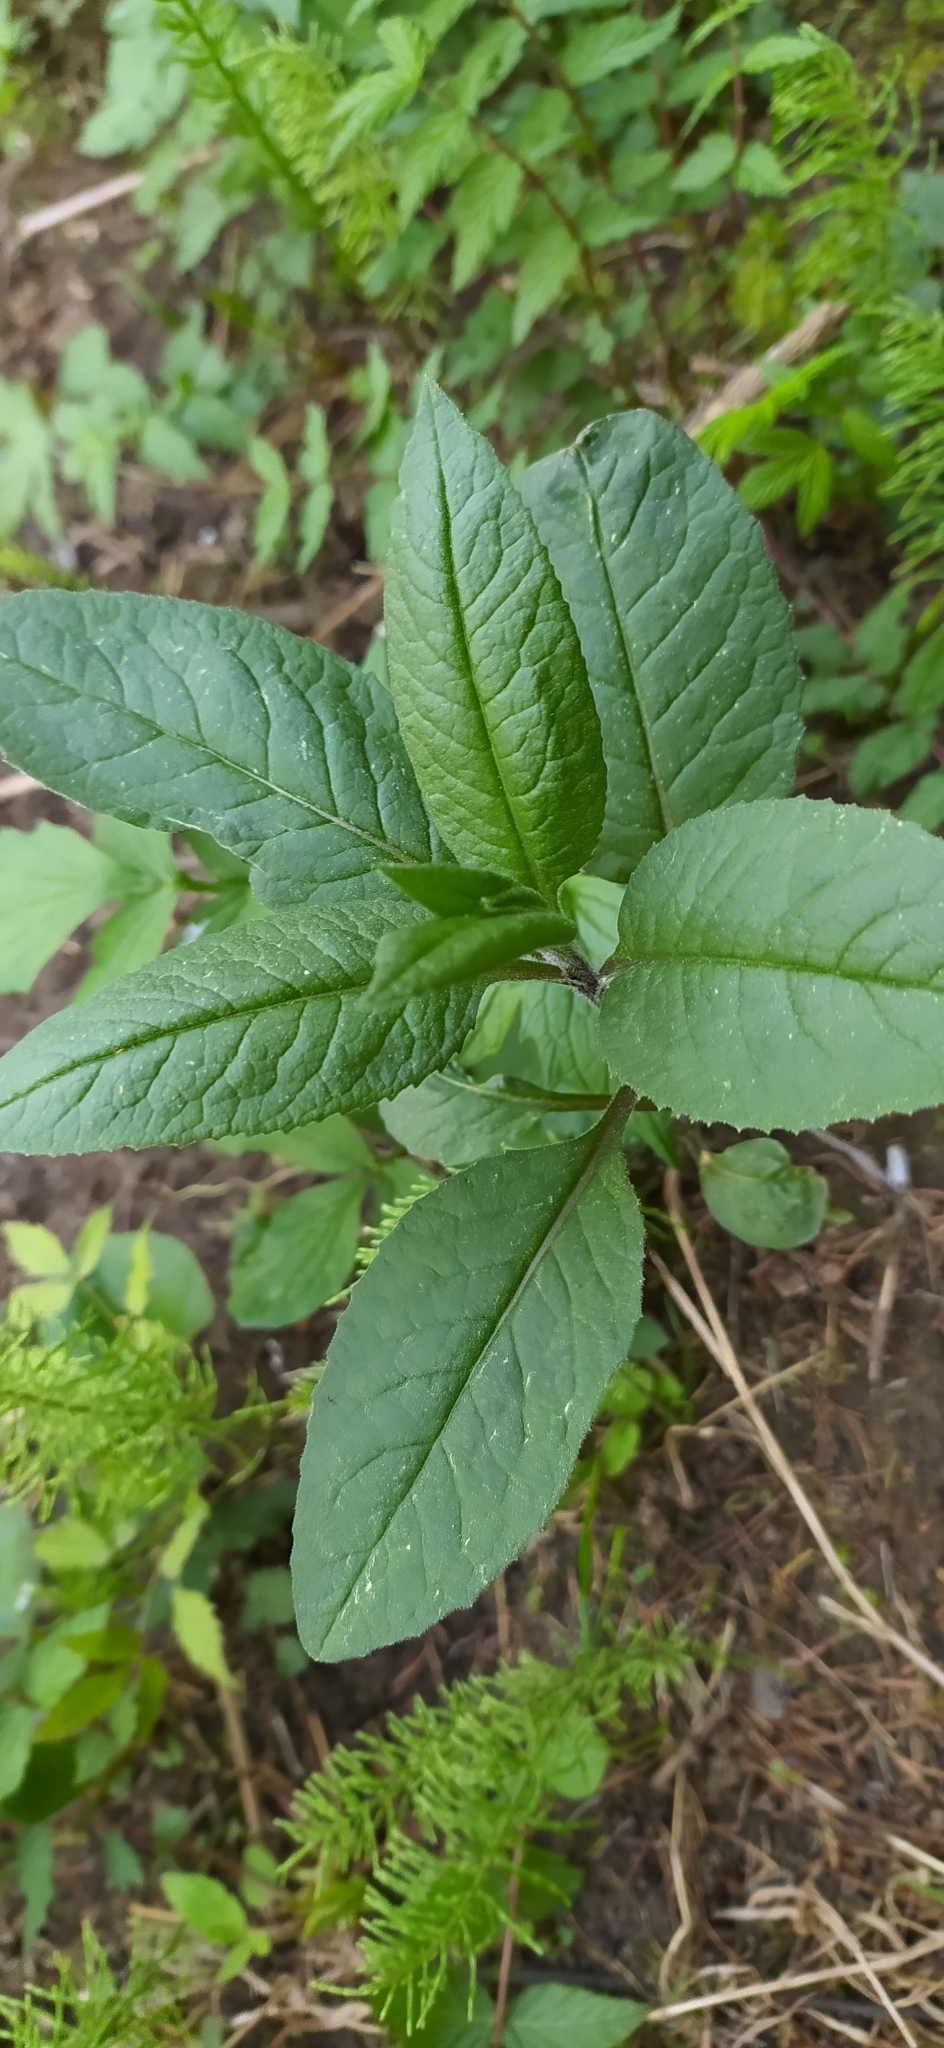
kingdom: Plantae
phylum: Tracheophyta
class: Magnoliopsida
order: Asterales
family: Asteraceae
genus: Senecio
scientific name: Senecio nemorensis
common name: Alpine ragwort
